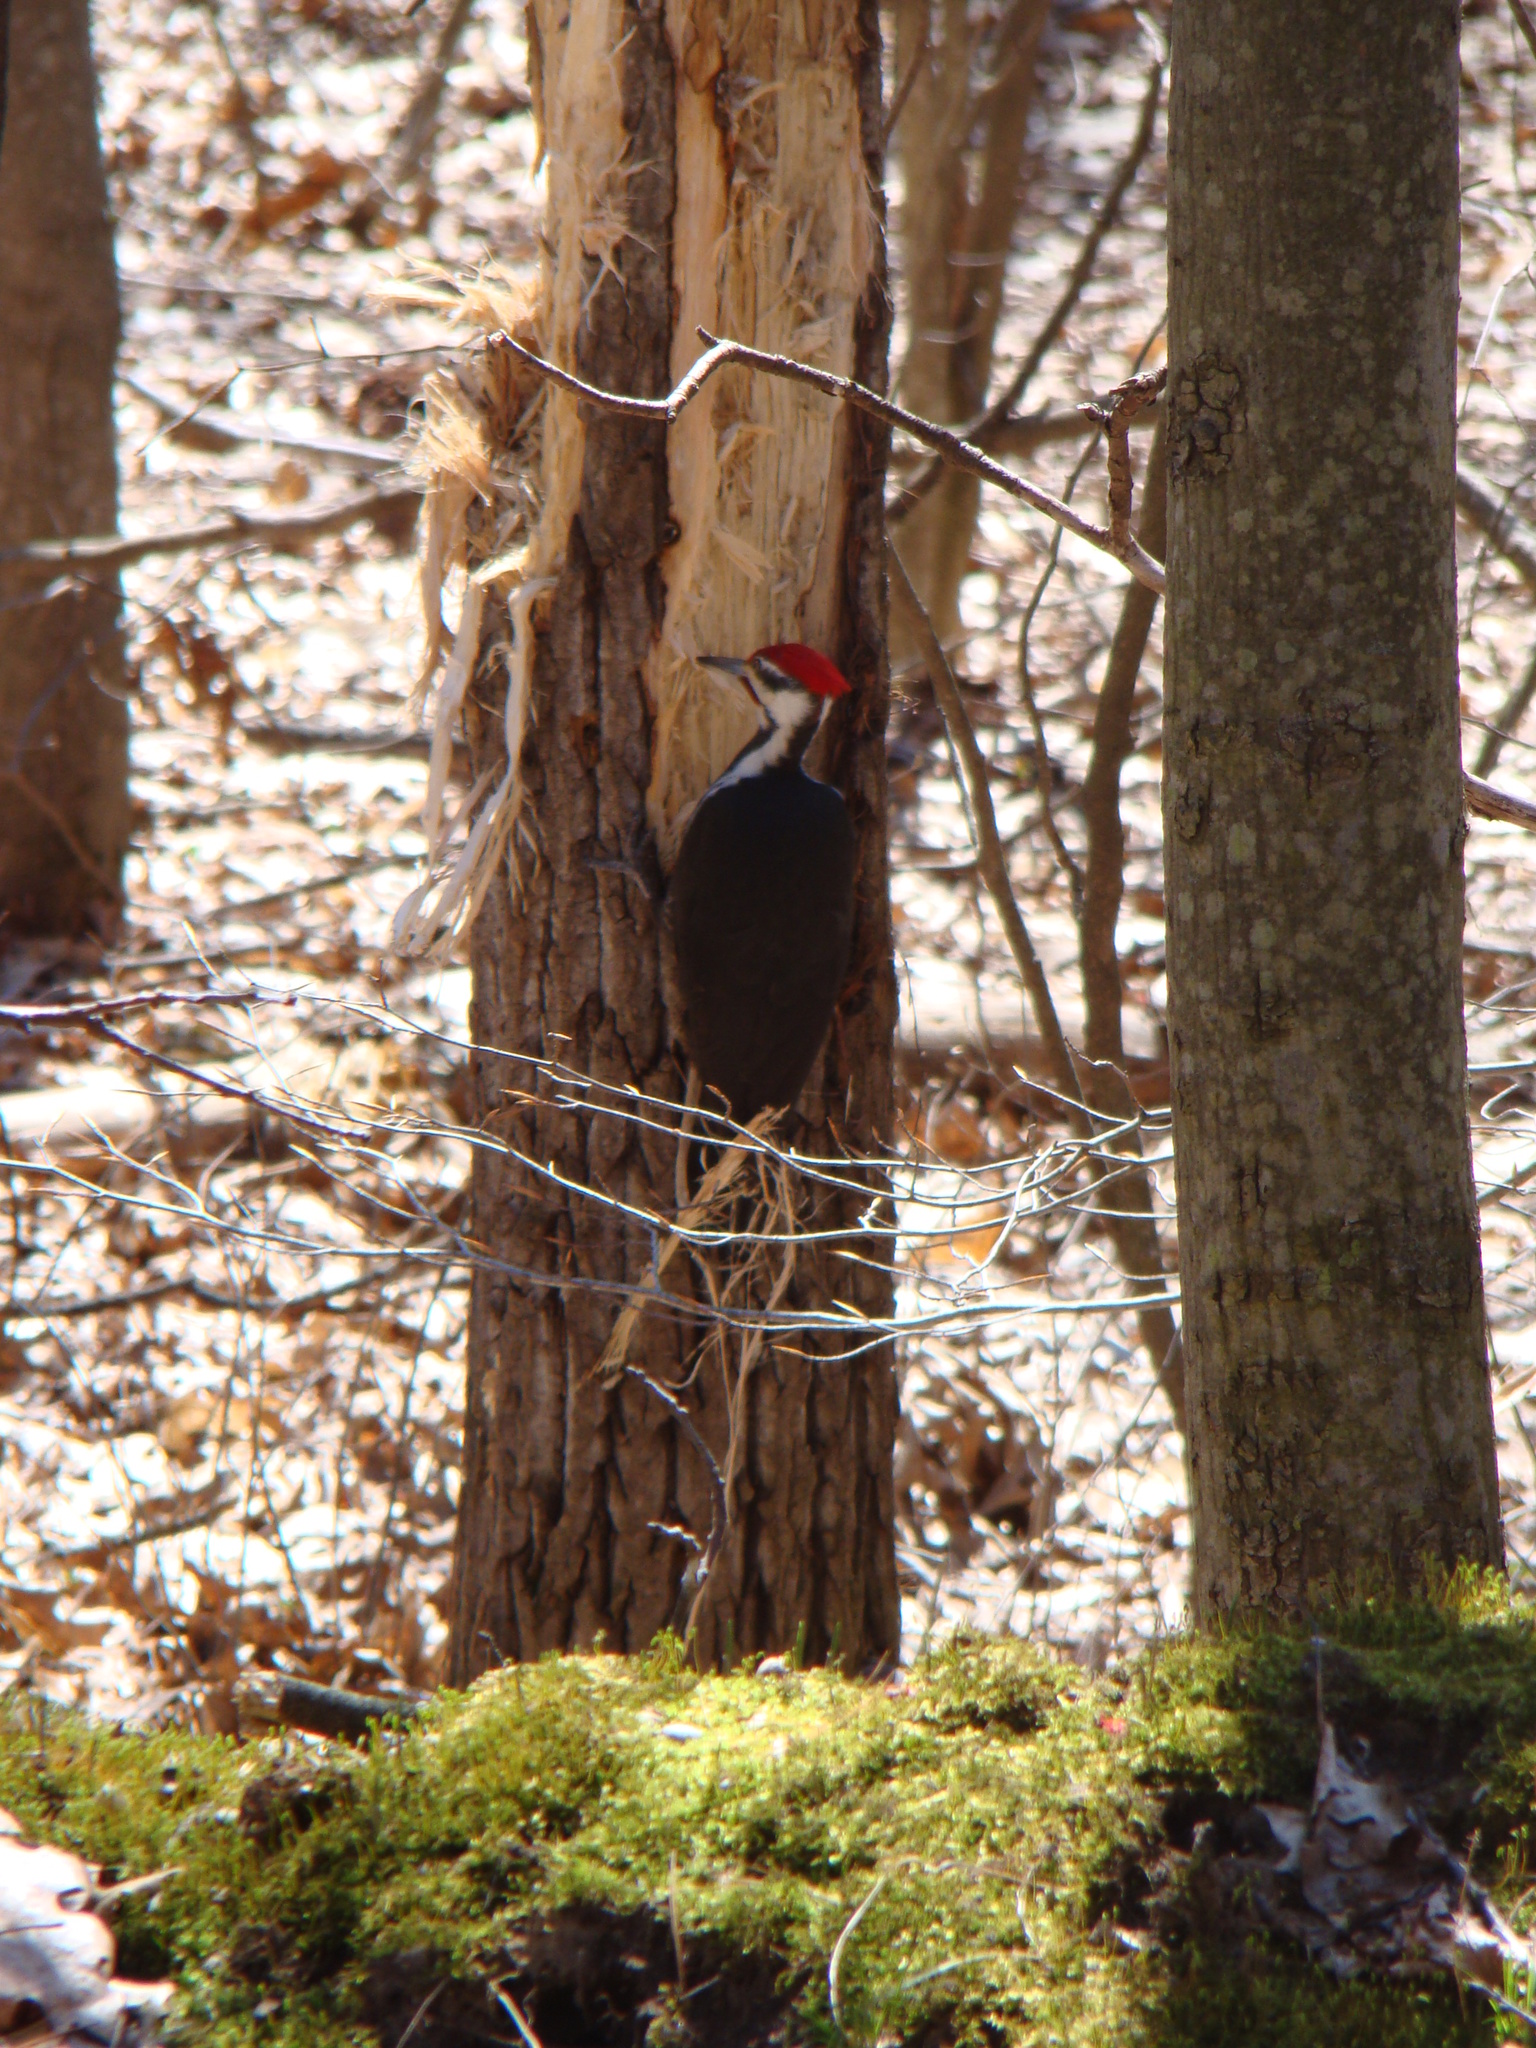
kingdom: Animalia
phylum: Chordata
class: Aves
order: Piciformes
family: Picidae
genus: Dryocopus
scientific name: Dryocopus pileatus
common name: Pileated woodpecker
